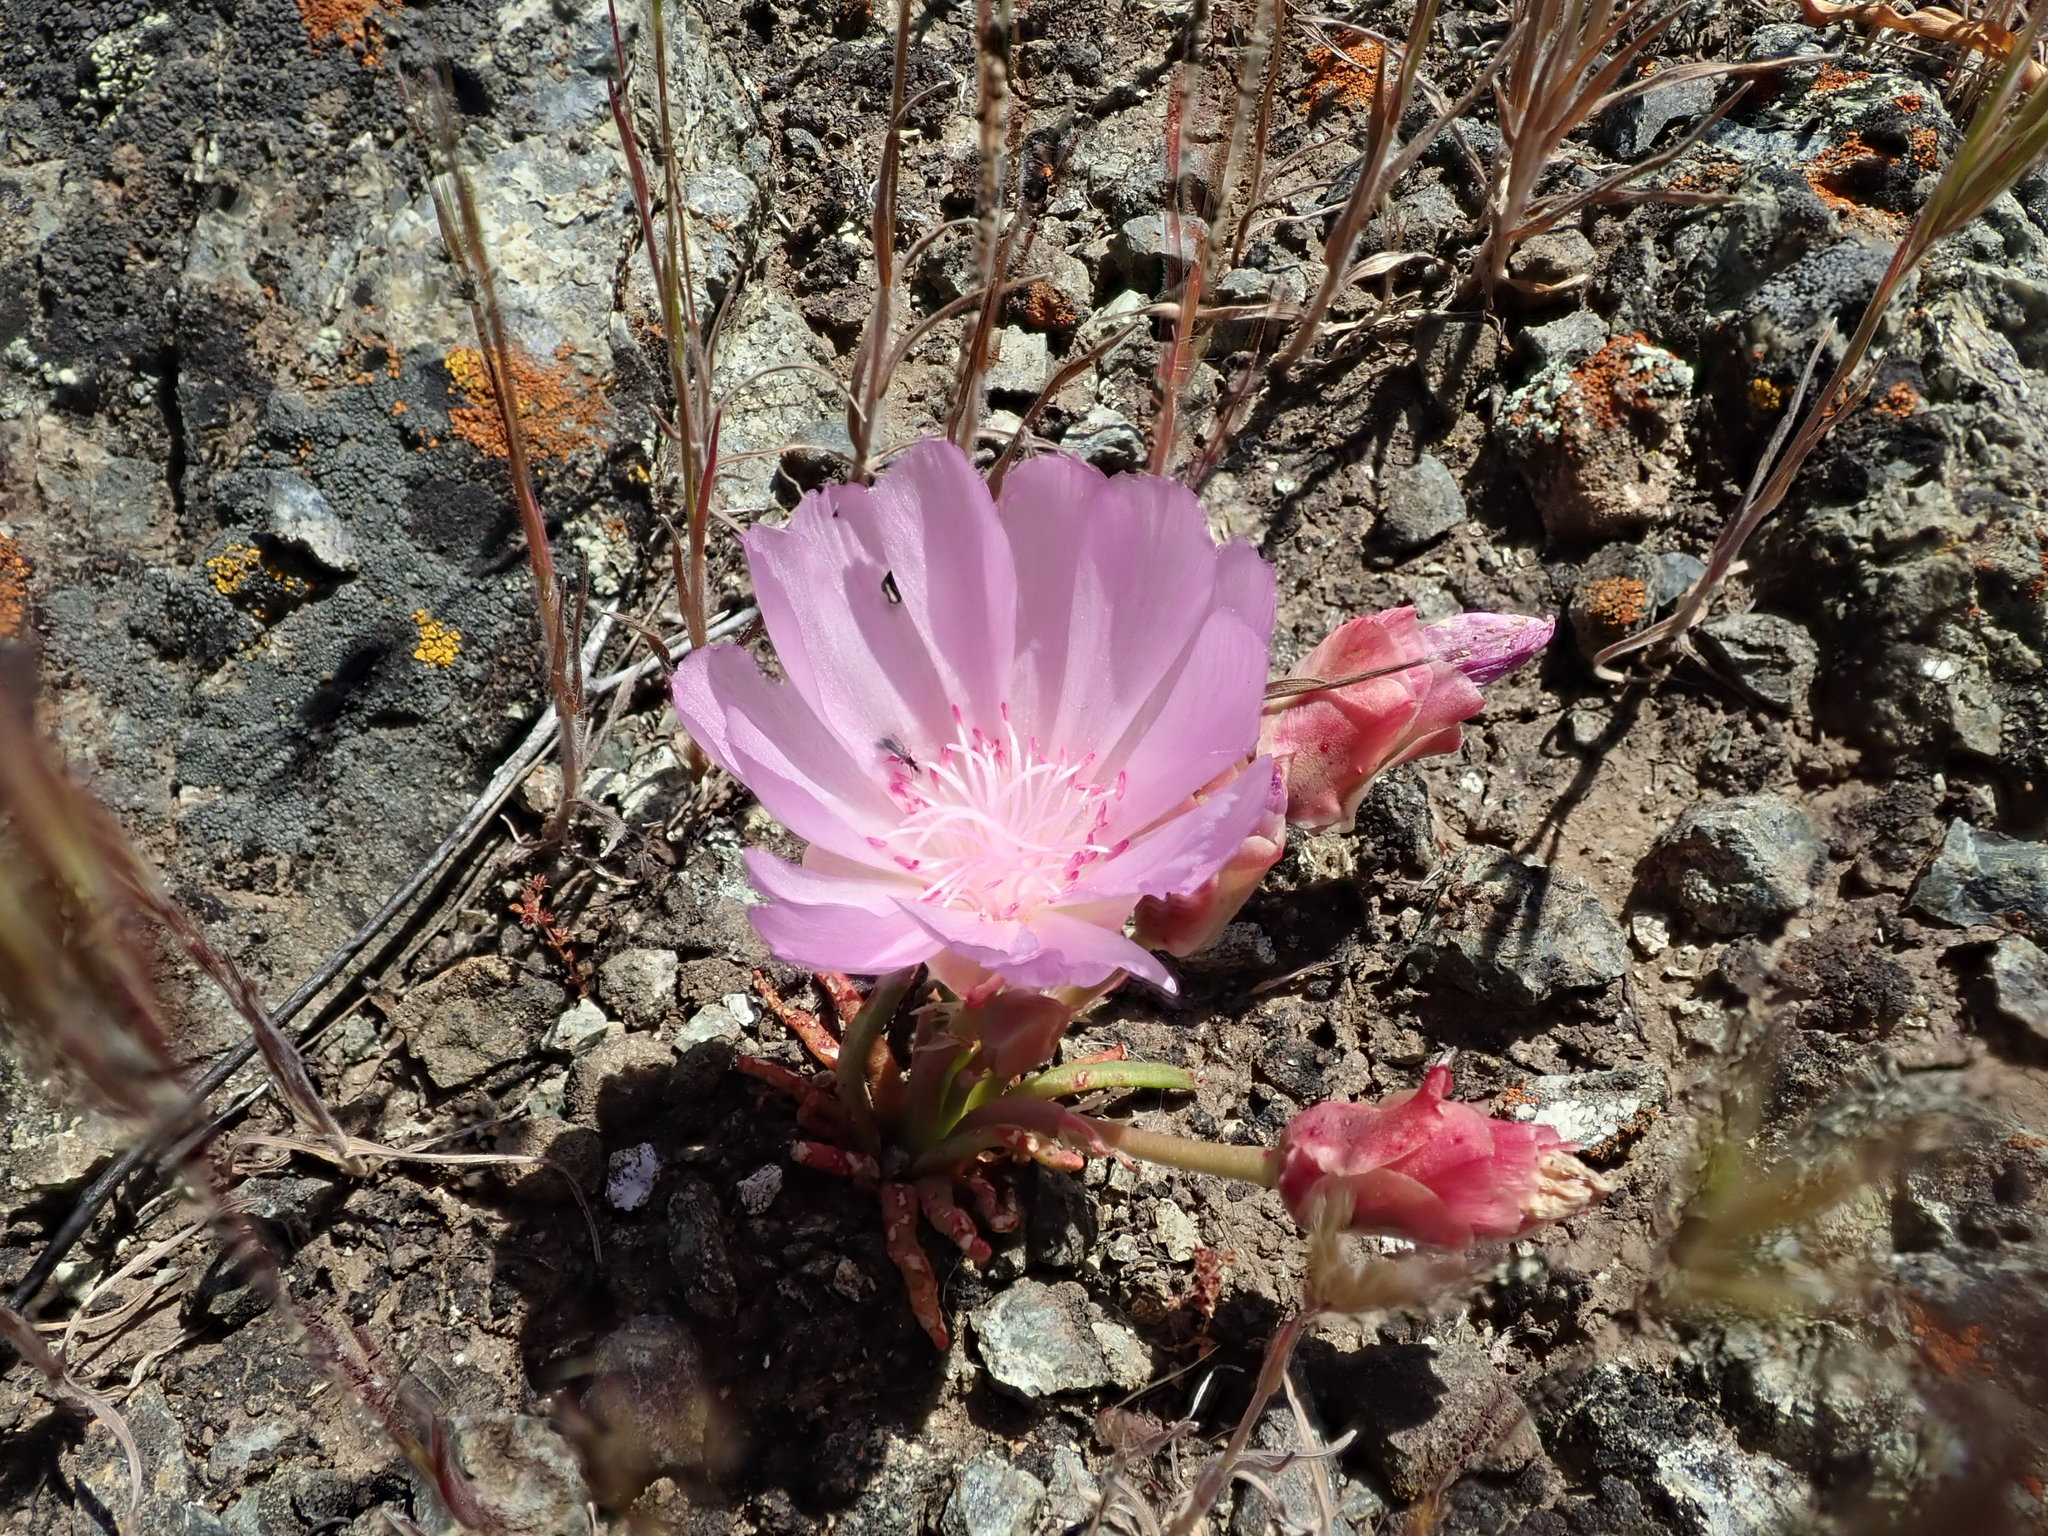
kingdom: Plantae
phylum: Tracheophyta
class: Magnoliopsida
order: Caryophyllales
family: Montiaceae
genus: Lewisia
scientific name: Lewisia rediviva
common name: Bitter-root
